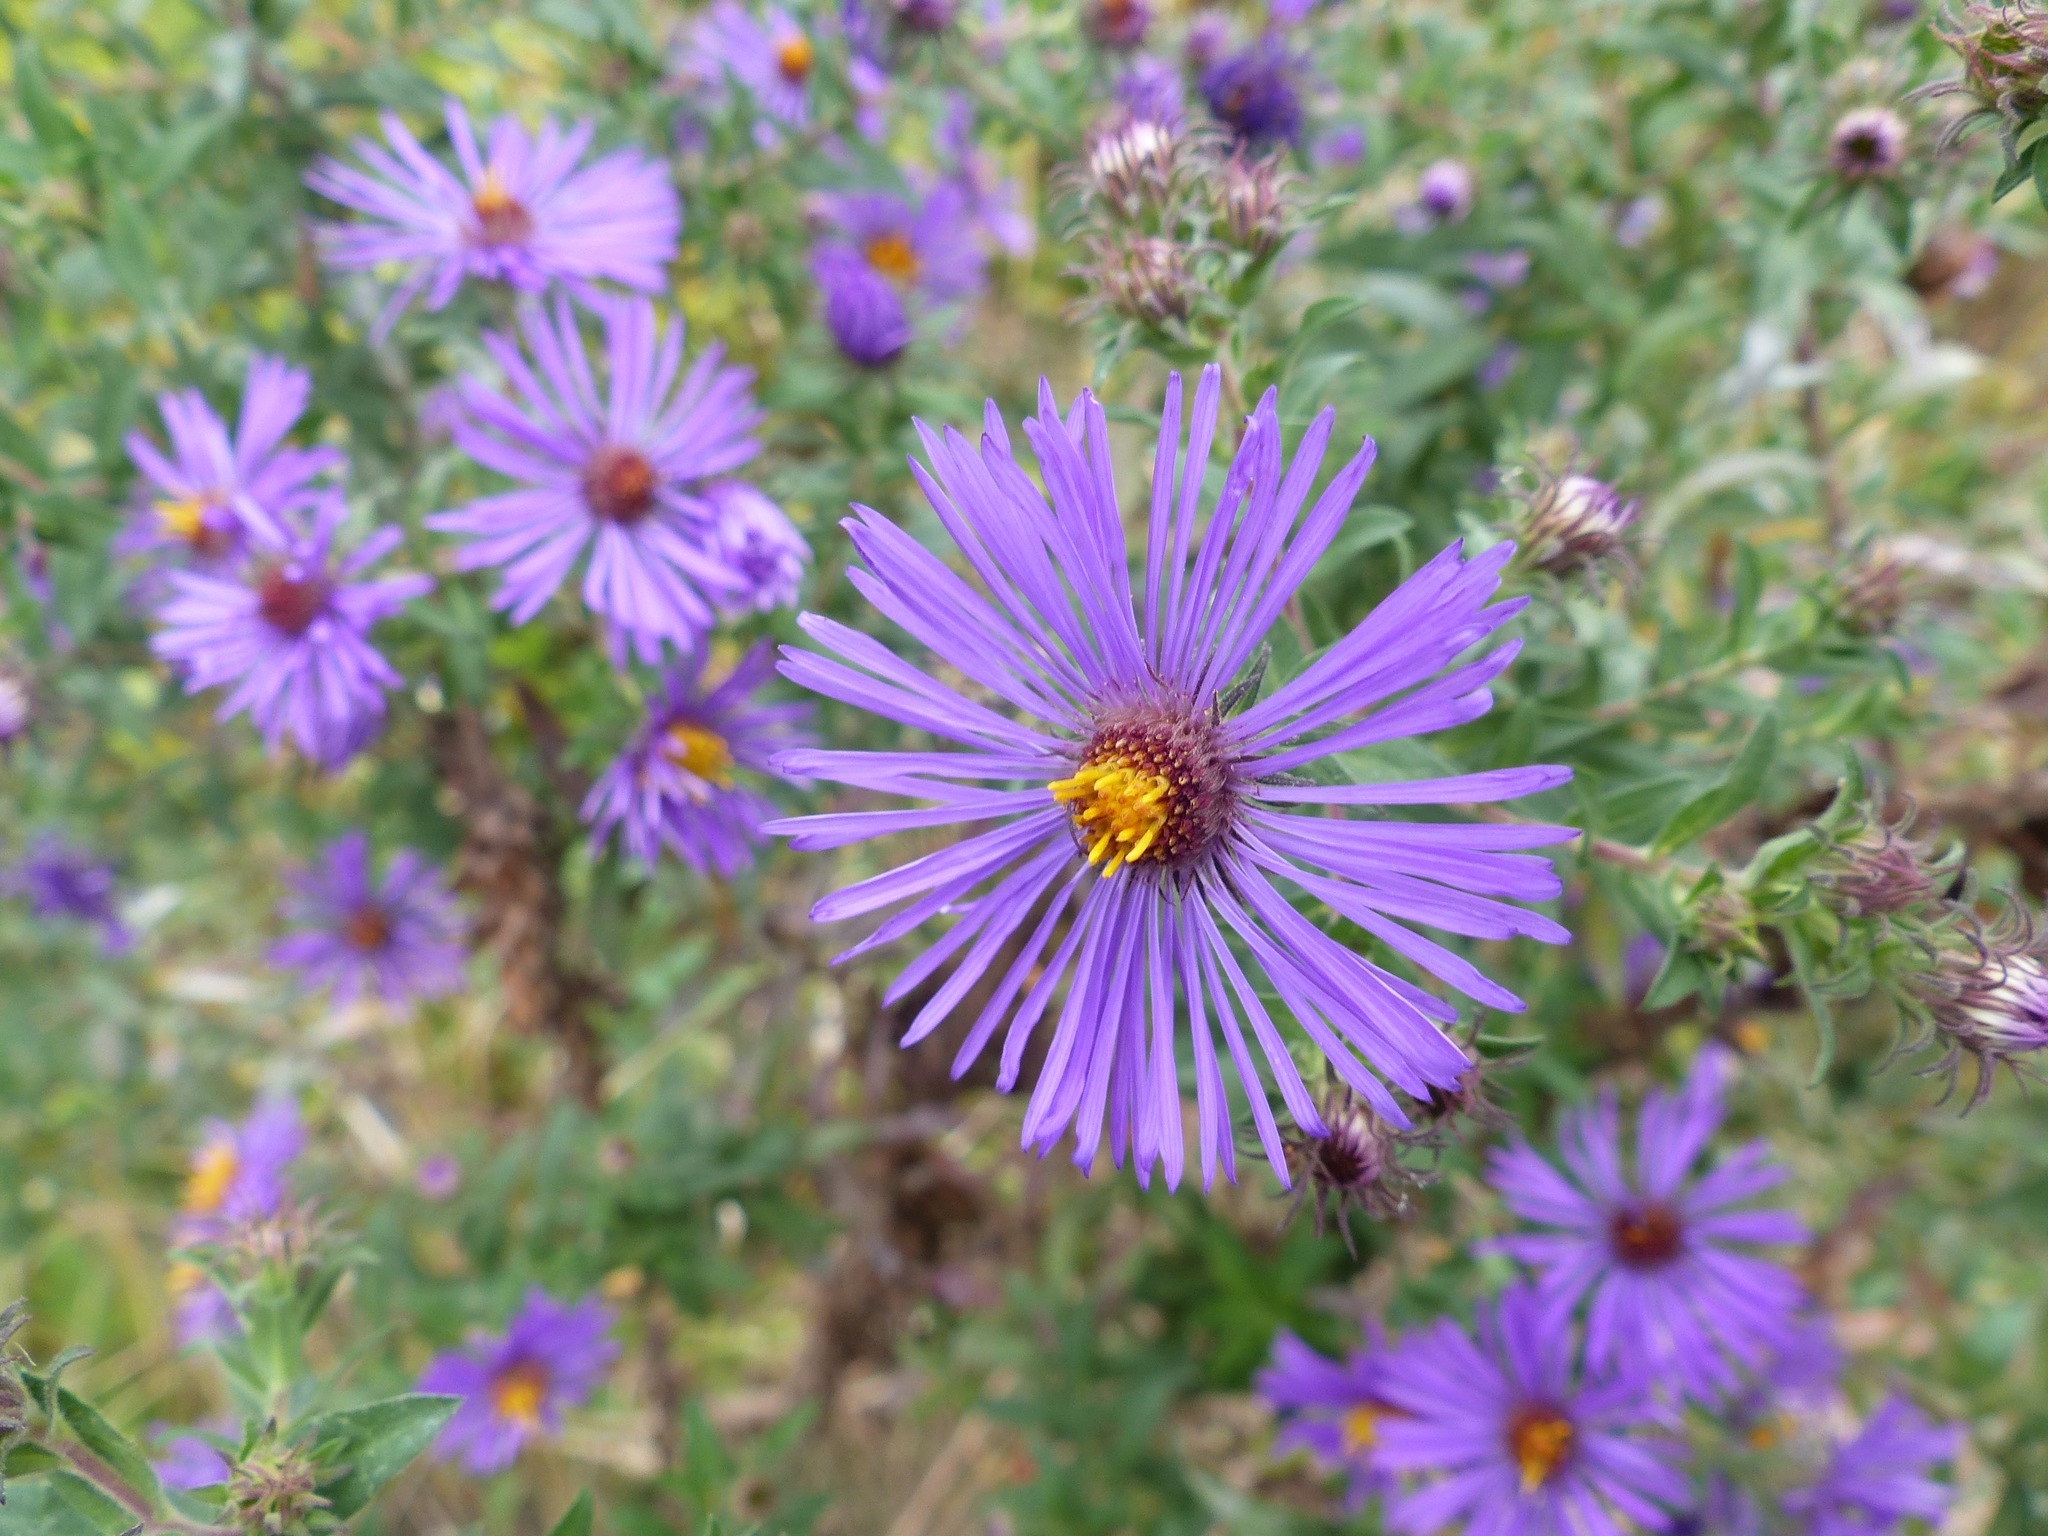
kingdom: Plantae
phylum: Tracheophyta
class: Magnoliopsida
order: Asterales
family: Asteraceae
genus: Symphyotrichum
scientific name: Symphyotrichum novae-angliae
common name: Michaelmas daisy
